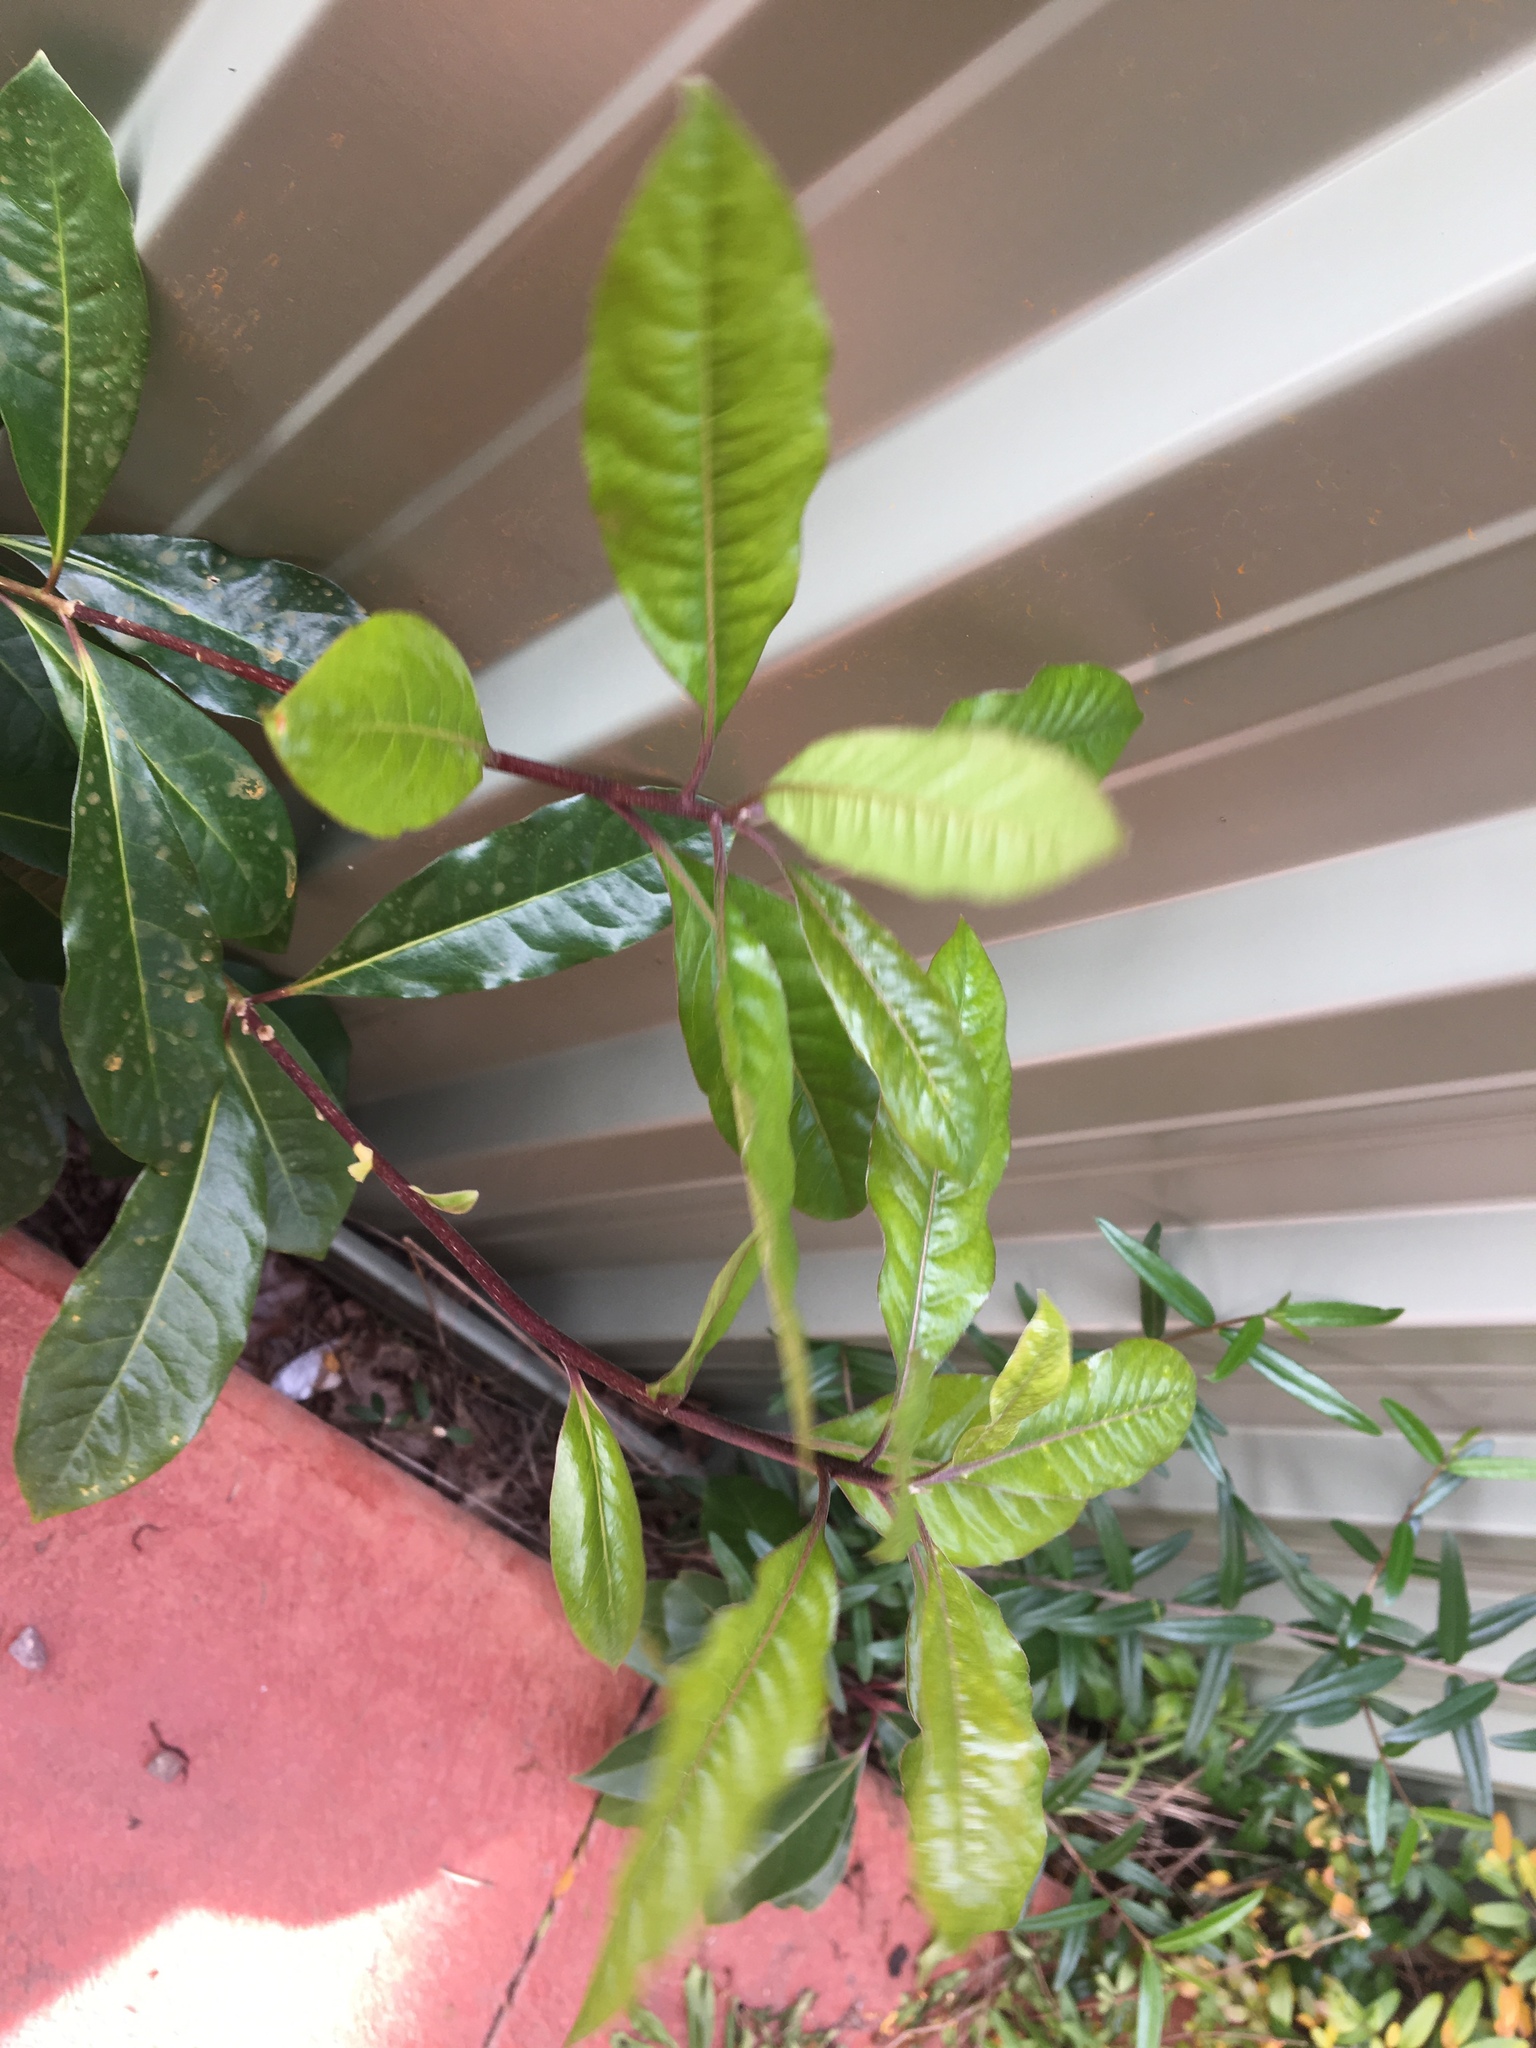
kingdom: Plantae
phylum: Tracheophyta
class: Magnoliopsida
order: Apiales
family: Pittosporaceae
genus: Pittosporum
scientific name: Pittosporum undulatum
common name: Australian cheesewood
